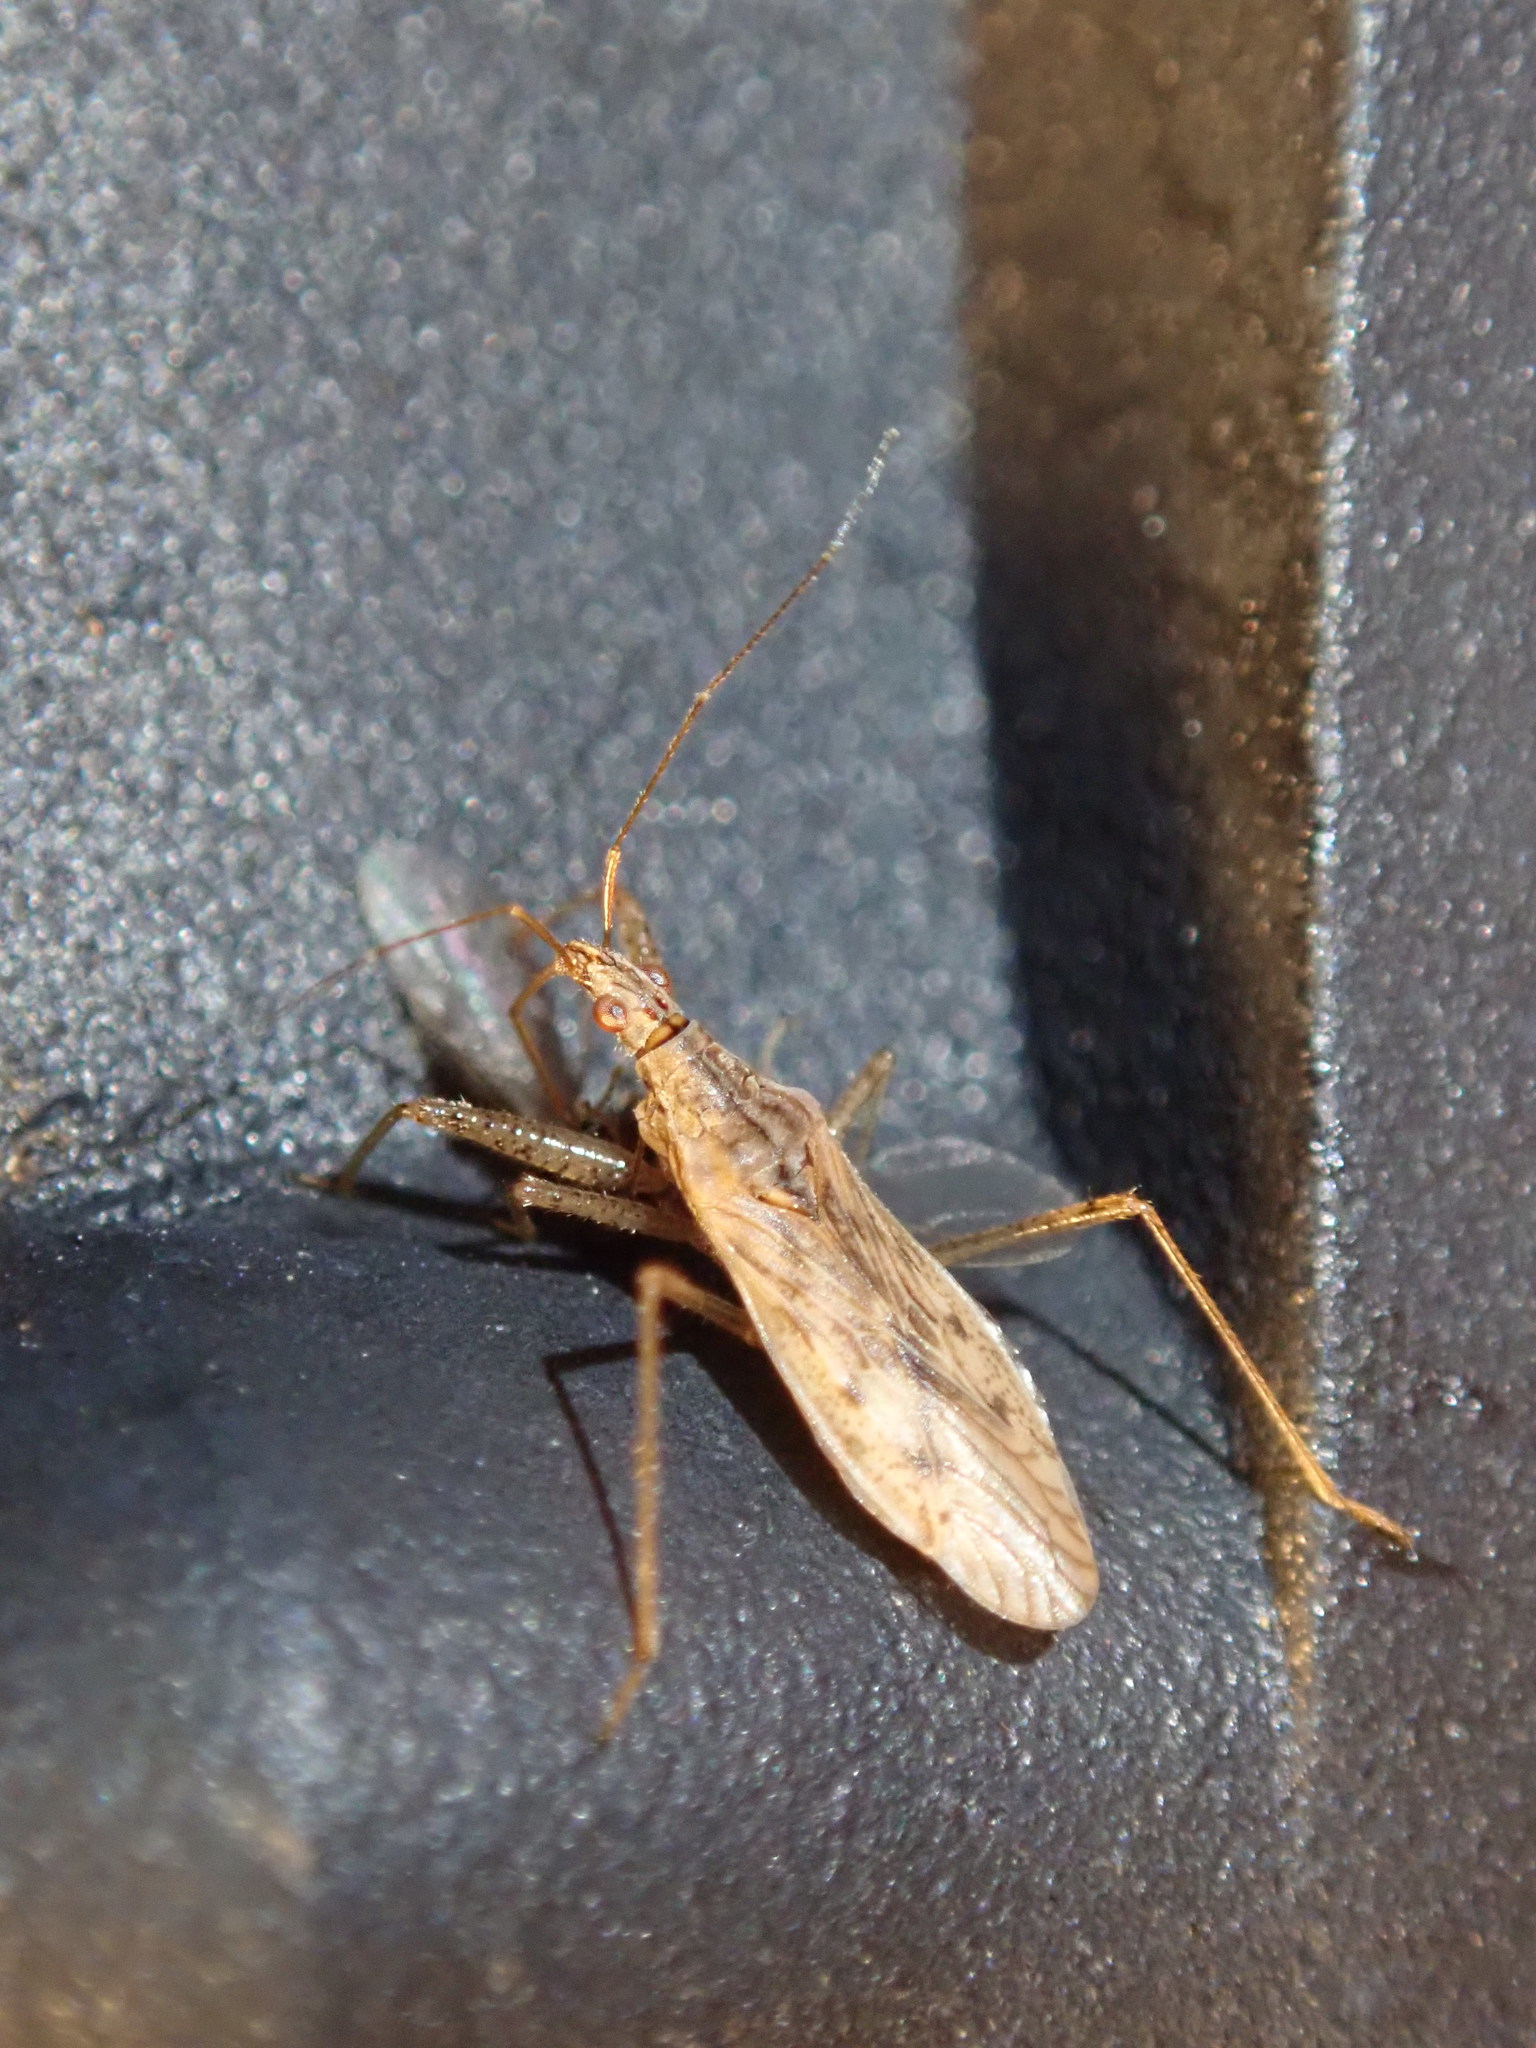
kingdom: Animalia
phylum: Arthropoda
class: Insecta
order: Hemiptera
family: Nabidae
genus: Nabis
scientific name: Nabis roseipennis
